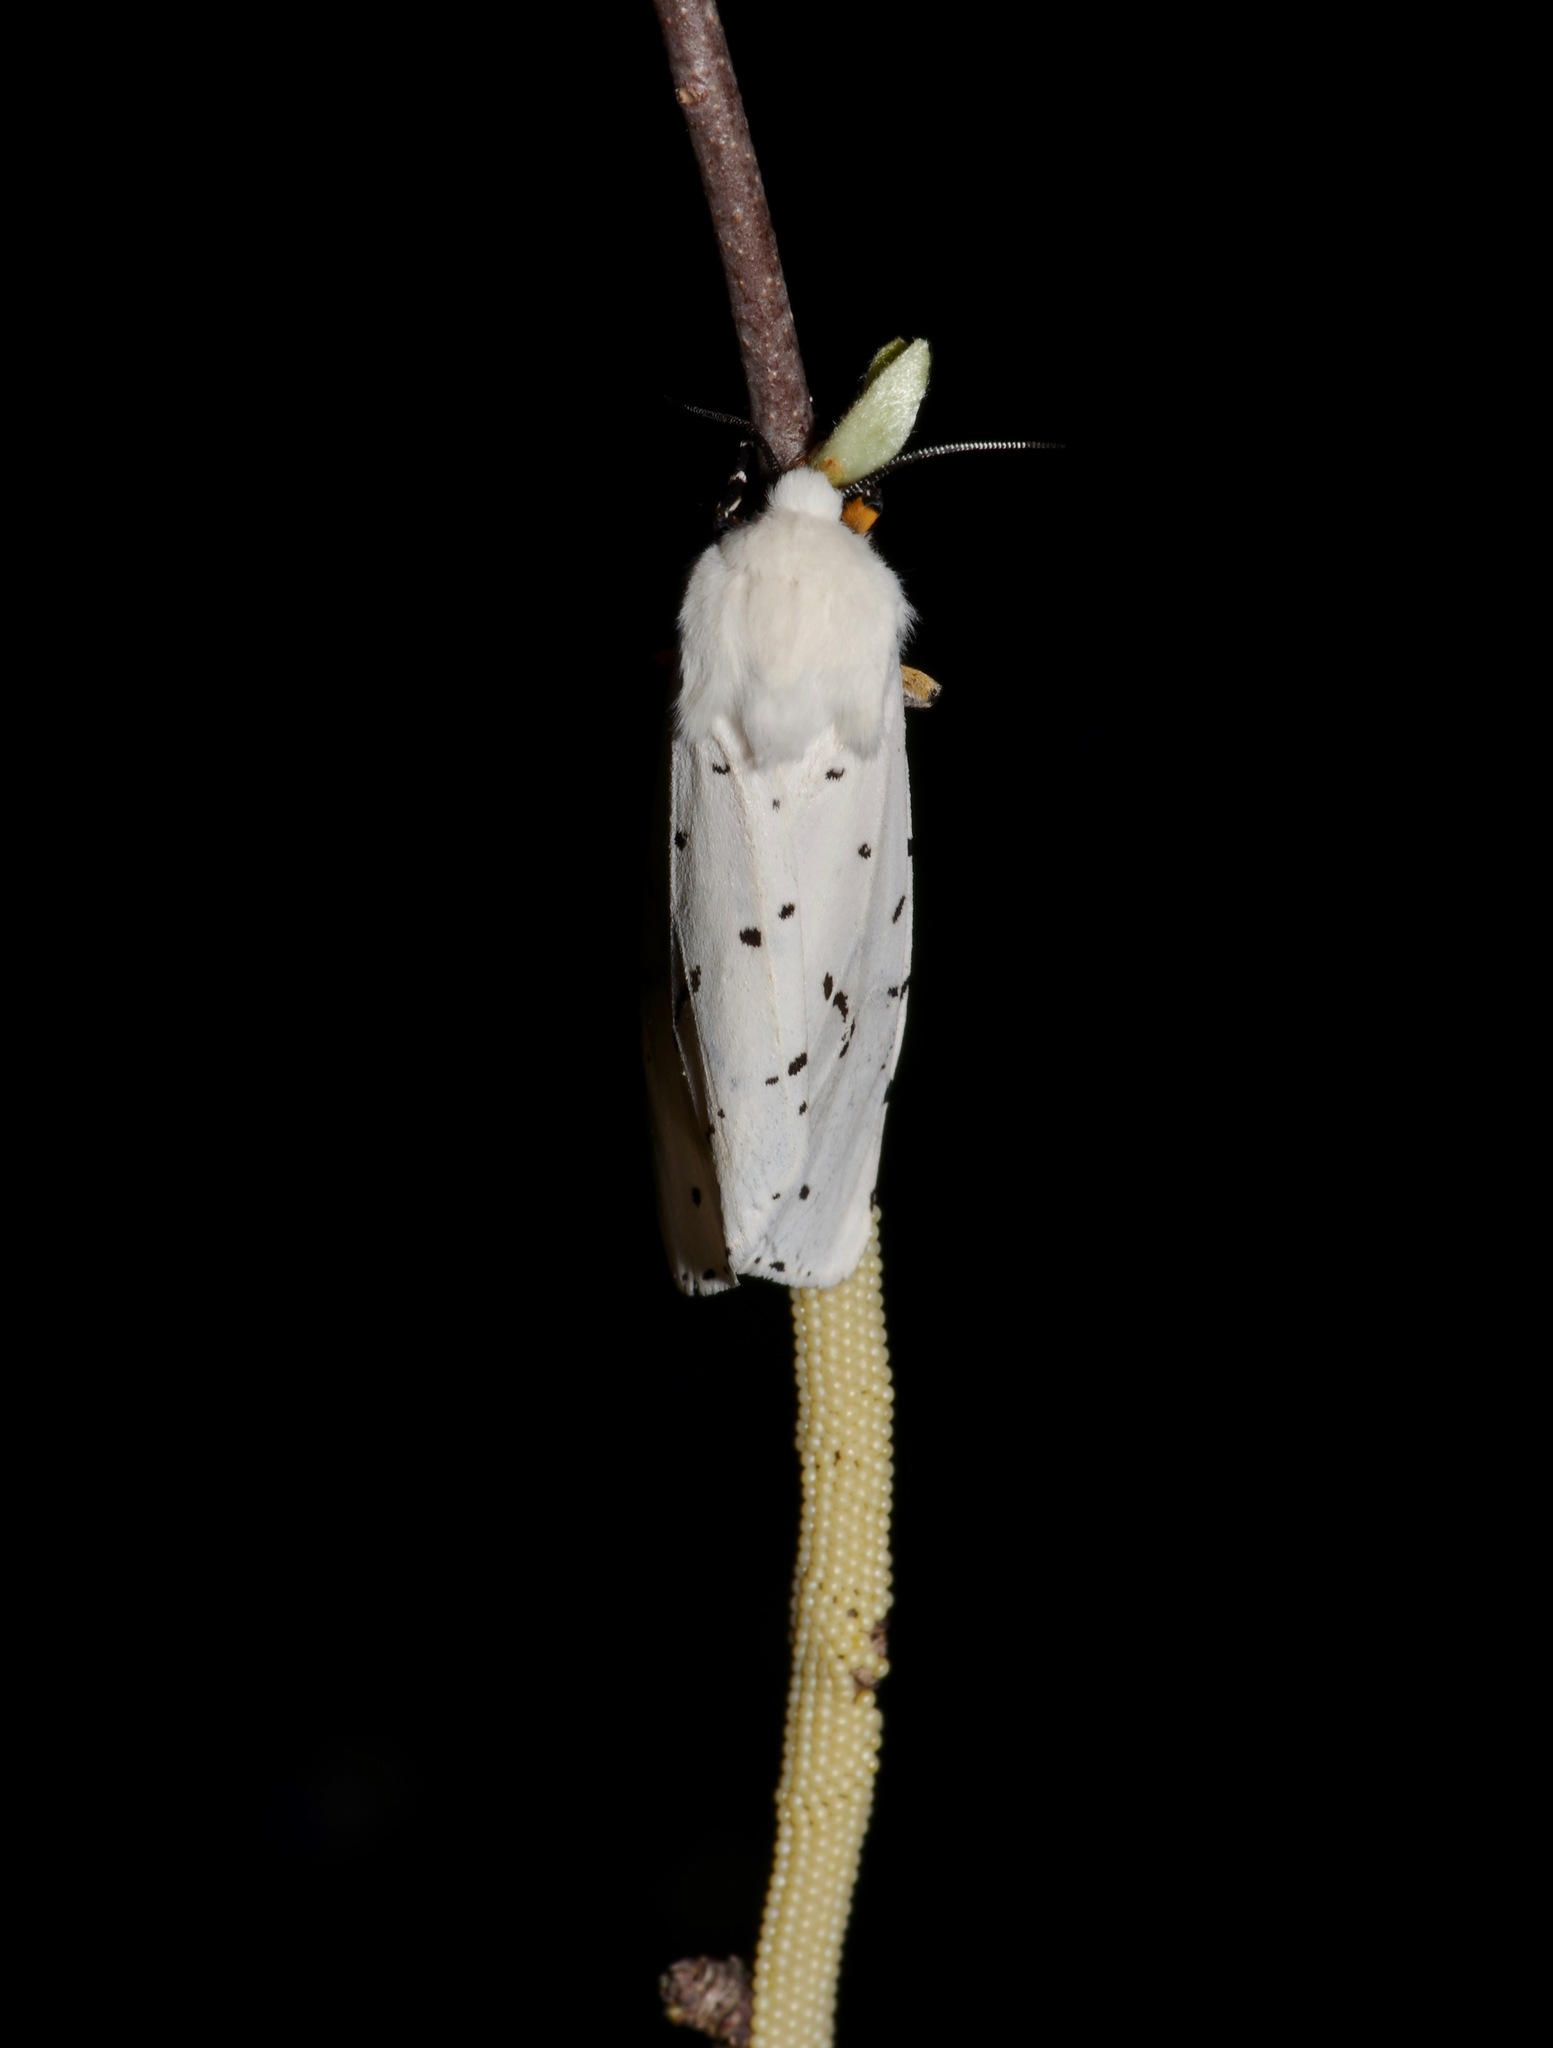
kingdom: Animalia
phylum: Arthropoda
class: Insecta
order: Lepidoptera
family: Erebidae
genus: Estigmene
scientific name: Estigmene acrea
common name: Salt marsh moth
